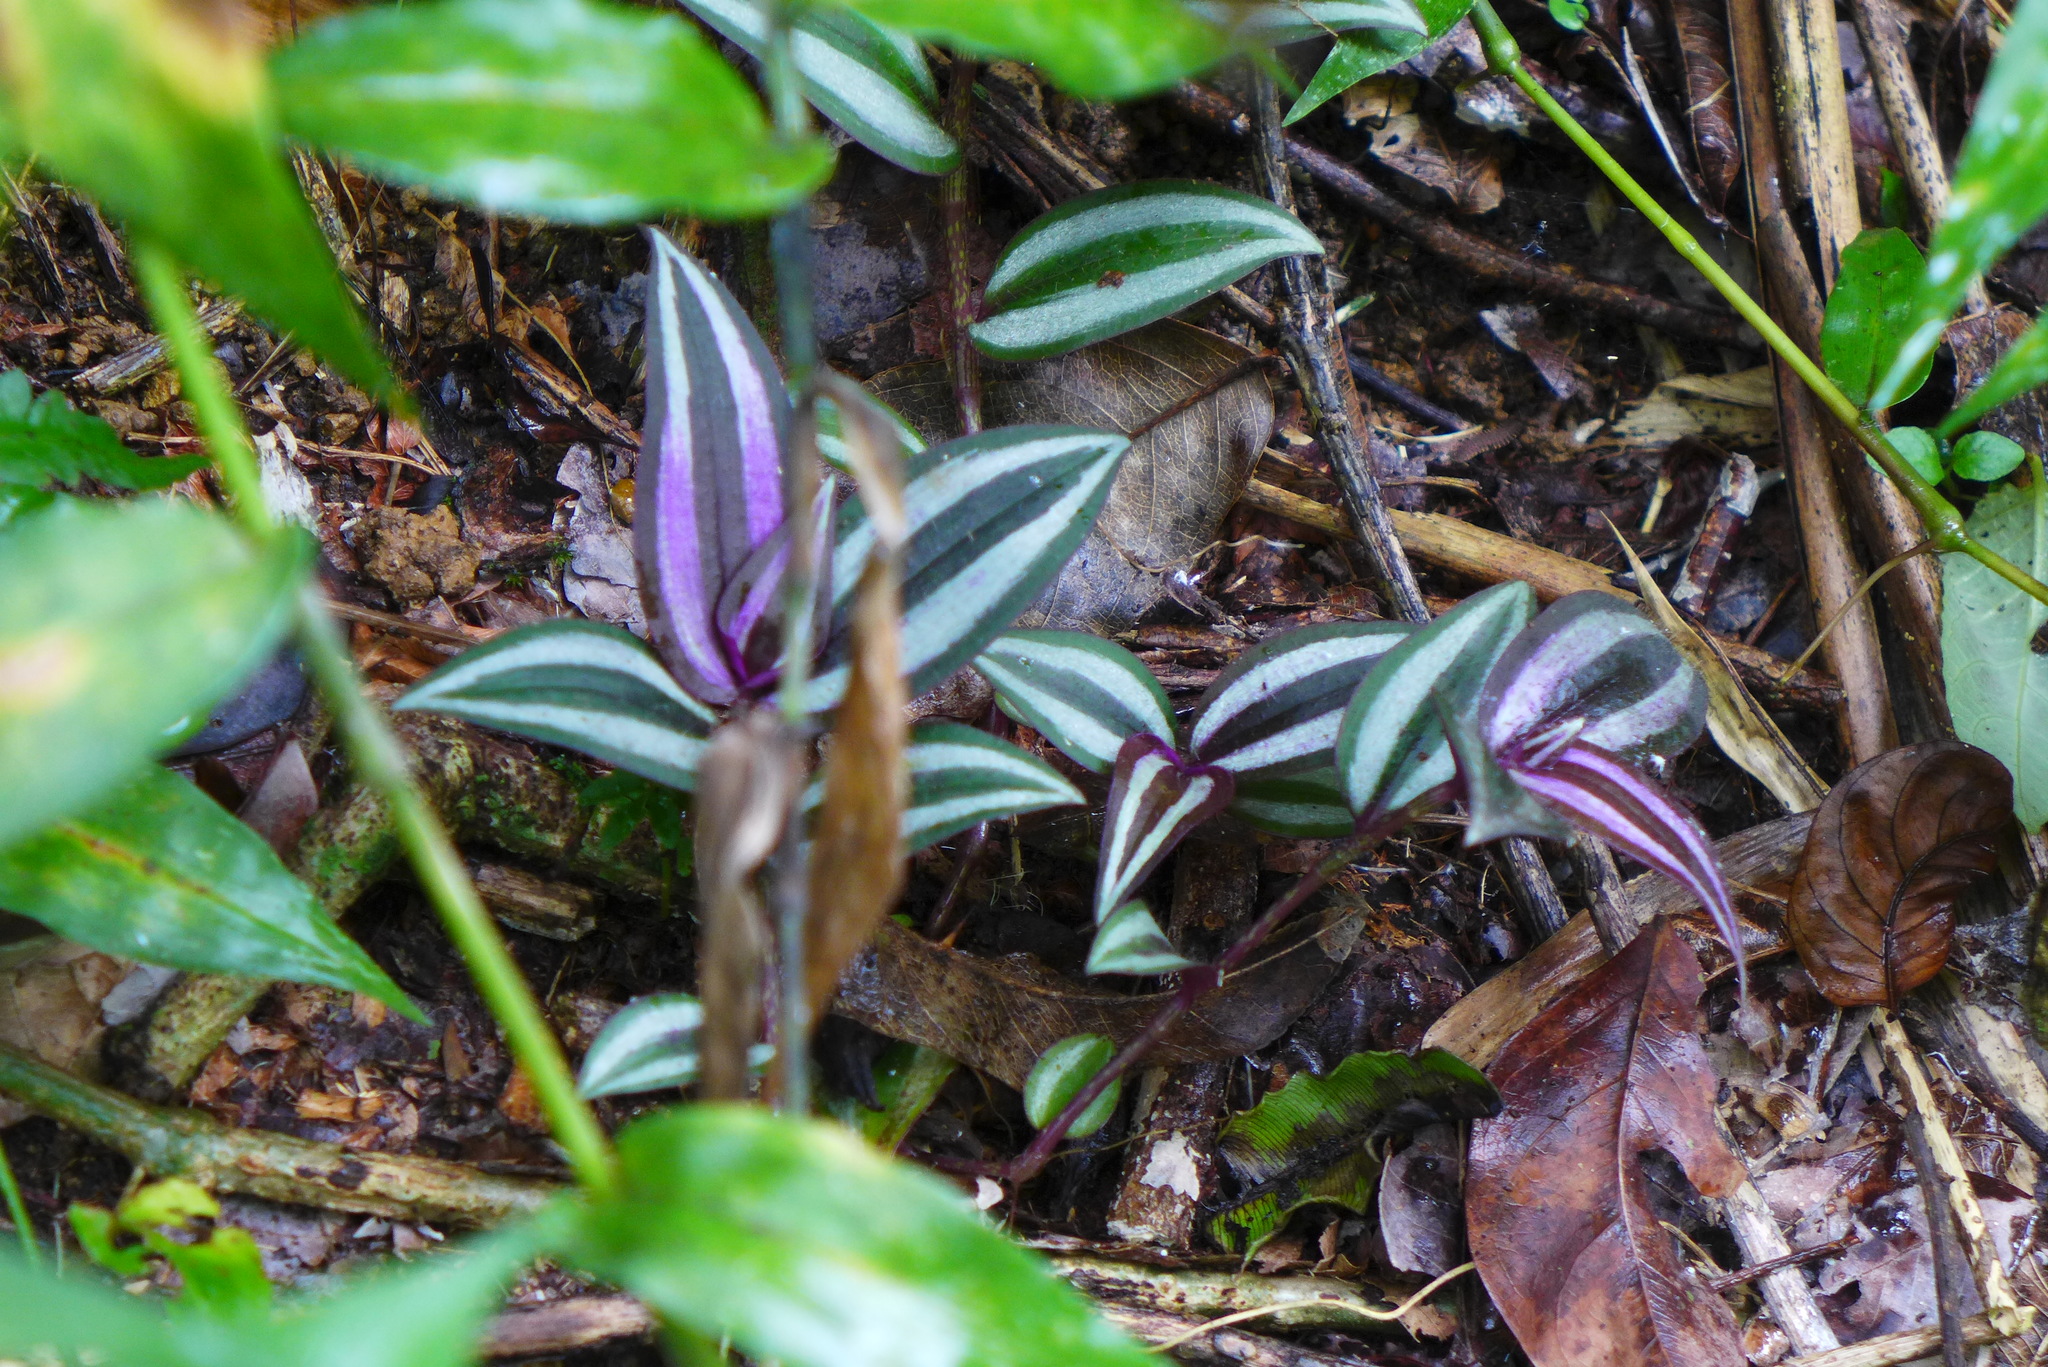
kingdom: Plantae
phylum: Tracheophyta
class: Liliopsida
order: Commelinales
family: Commelinaceae
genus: Tradescantia
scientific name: Tradescantia zebrina
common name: Inchplant
